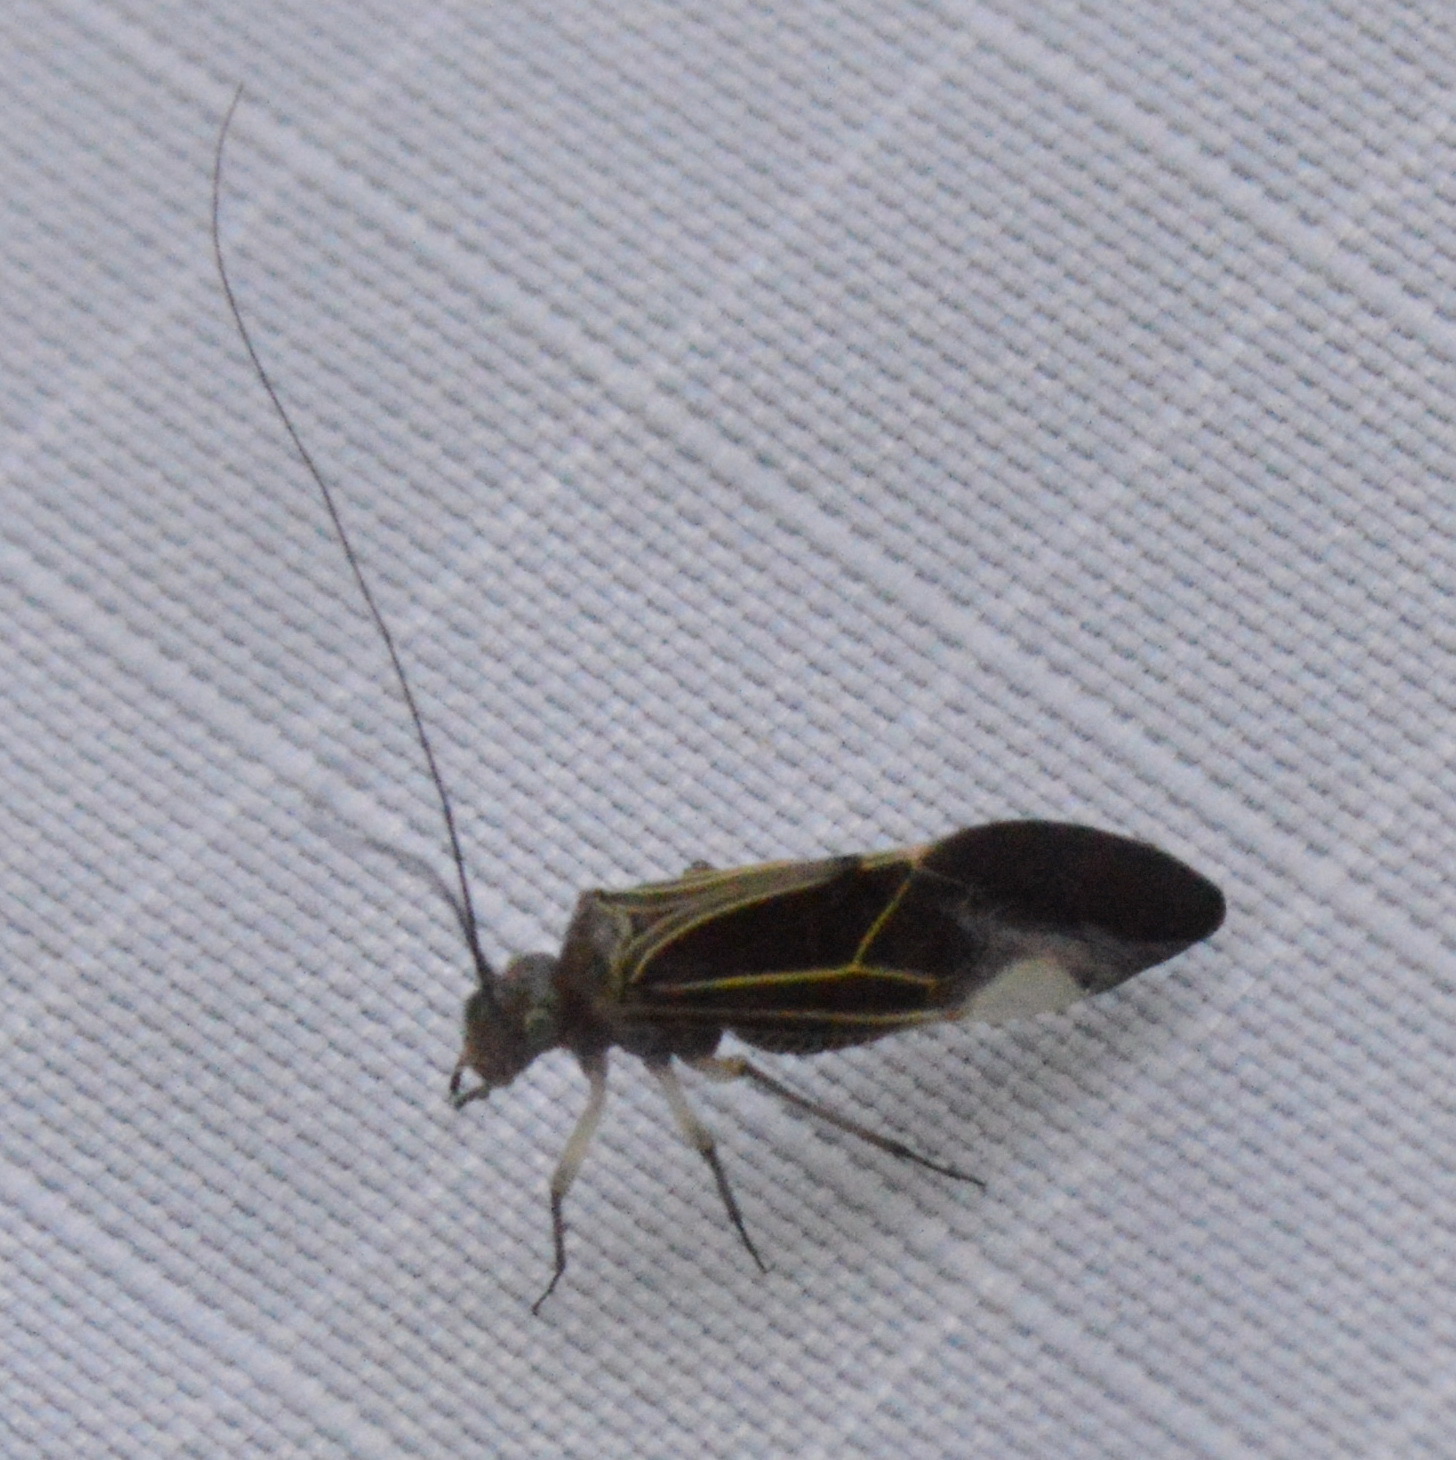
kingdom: Animalia
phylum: Arthropoda
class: Insecta
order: Psocodea
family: Psocidae
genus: Cerastipsocus
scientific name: Cerastipsocus venosus
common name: Tree cattle
